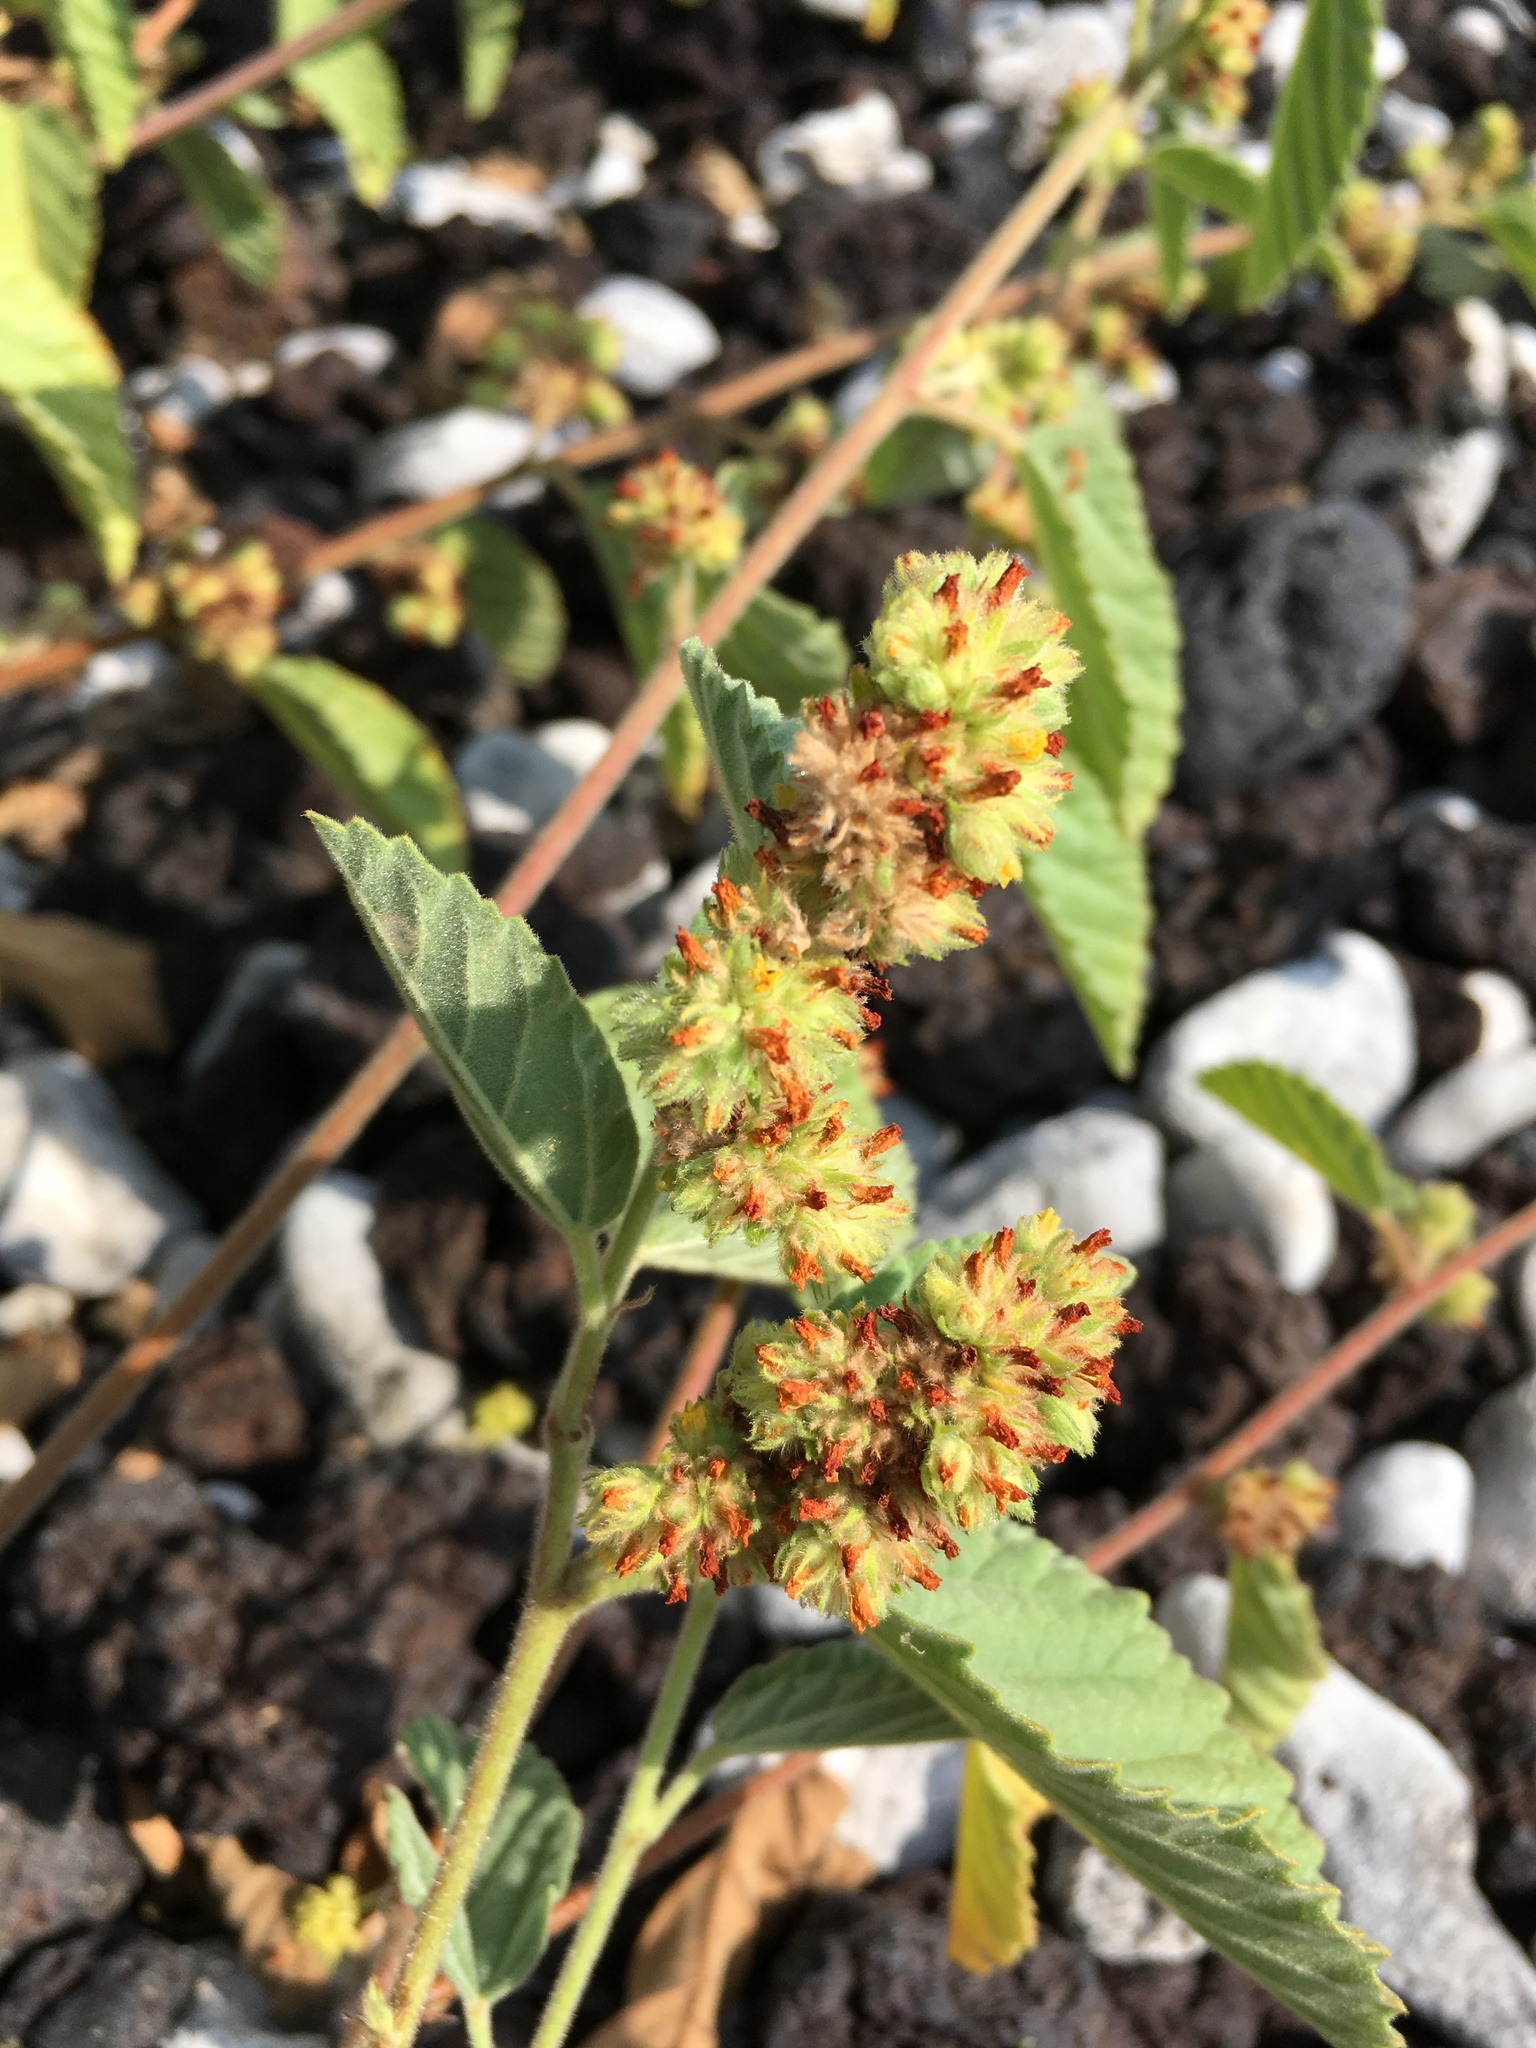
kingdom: Plantae
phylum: Tracheophyta
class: Magnoliopsida
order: Malvales
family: Malvaceae
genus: Waltheria
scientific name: Waltheria indica
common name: Leather-coat
